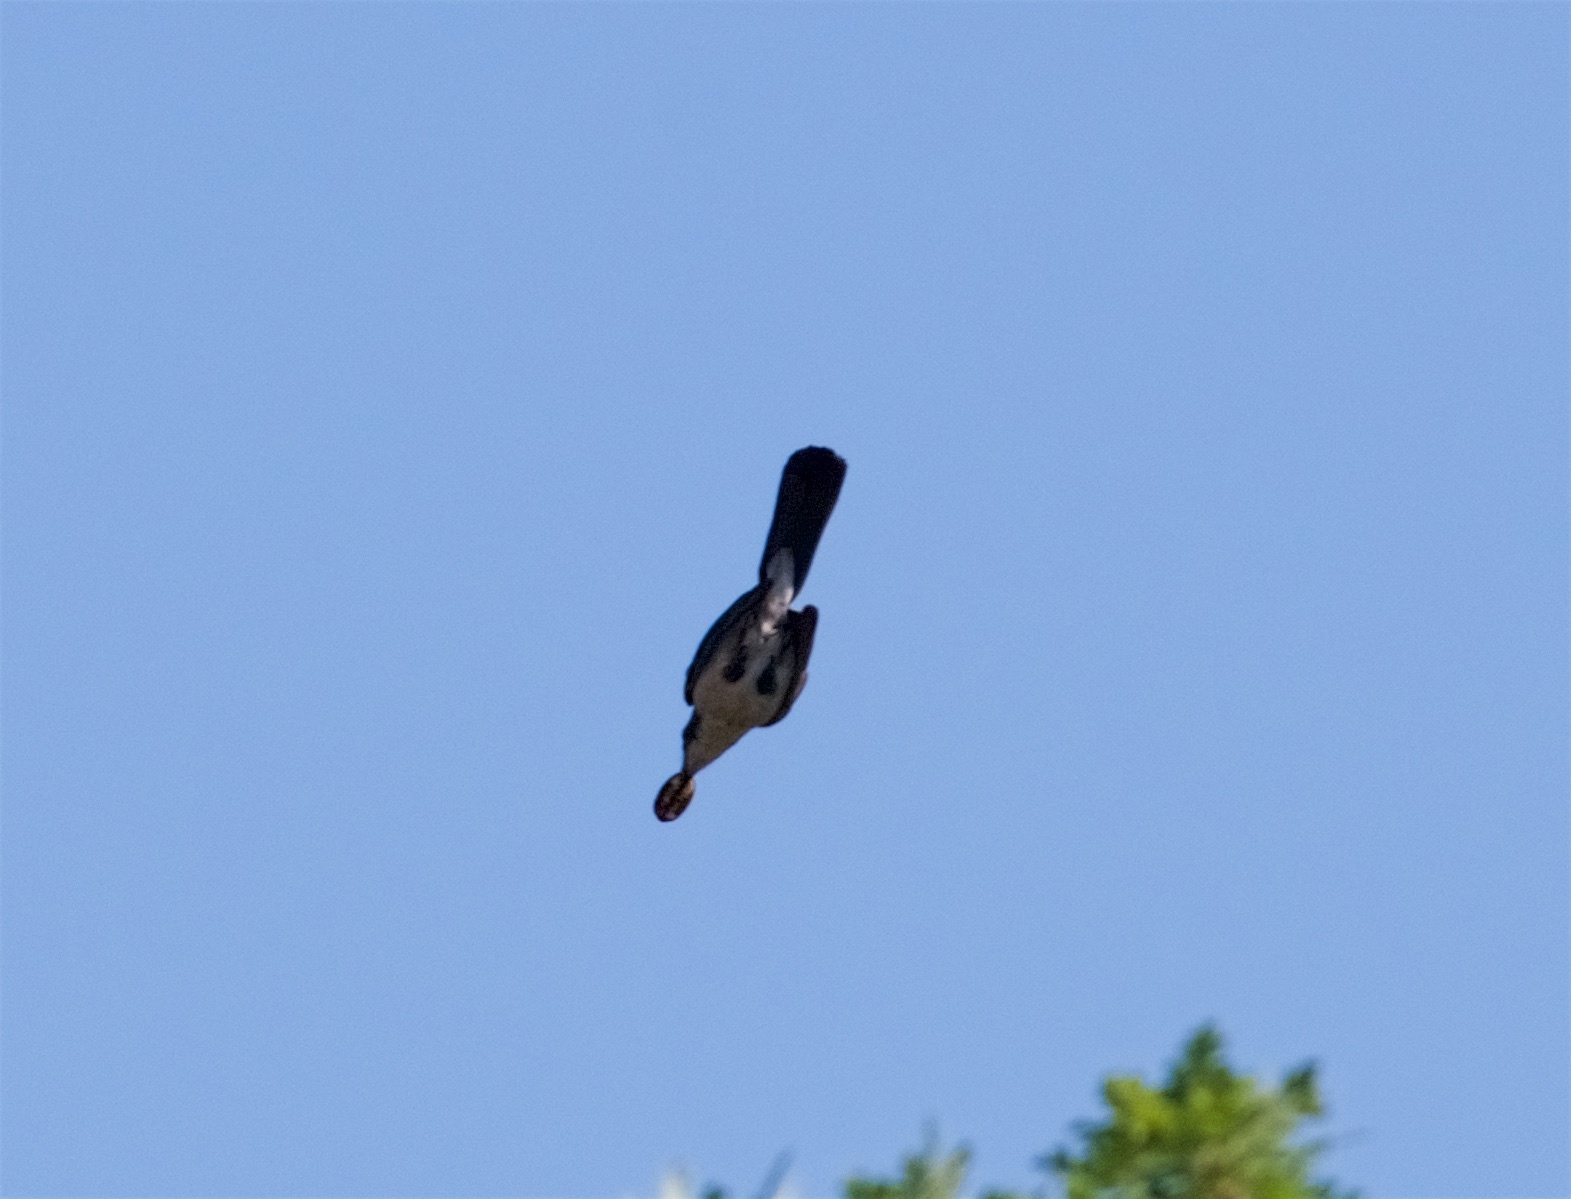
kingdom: Animalia
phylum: Chordata
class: Aves
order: Passeriformes
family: Corvidae
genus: Aphelocoma
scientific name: Aphelocoma californica
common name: California scrub-jay
